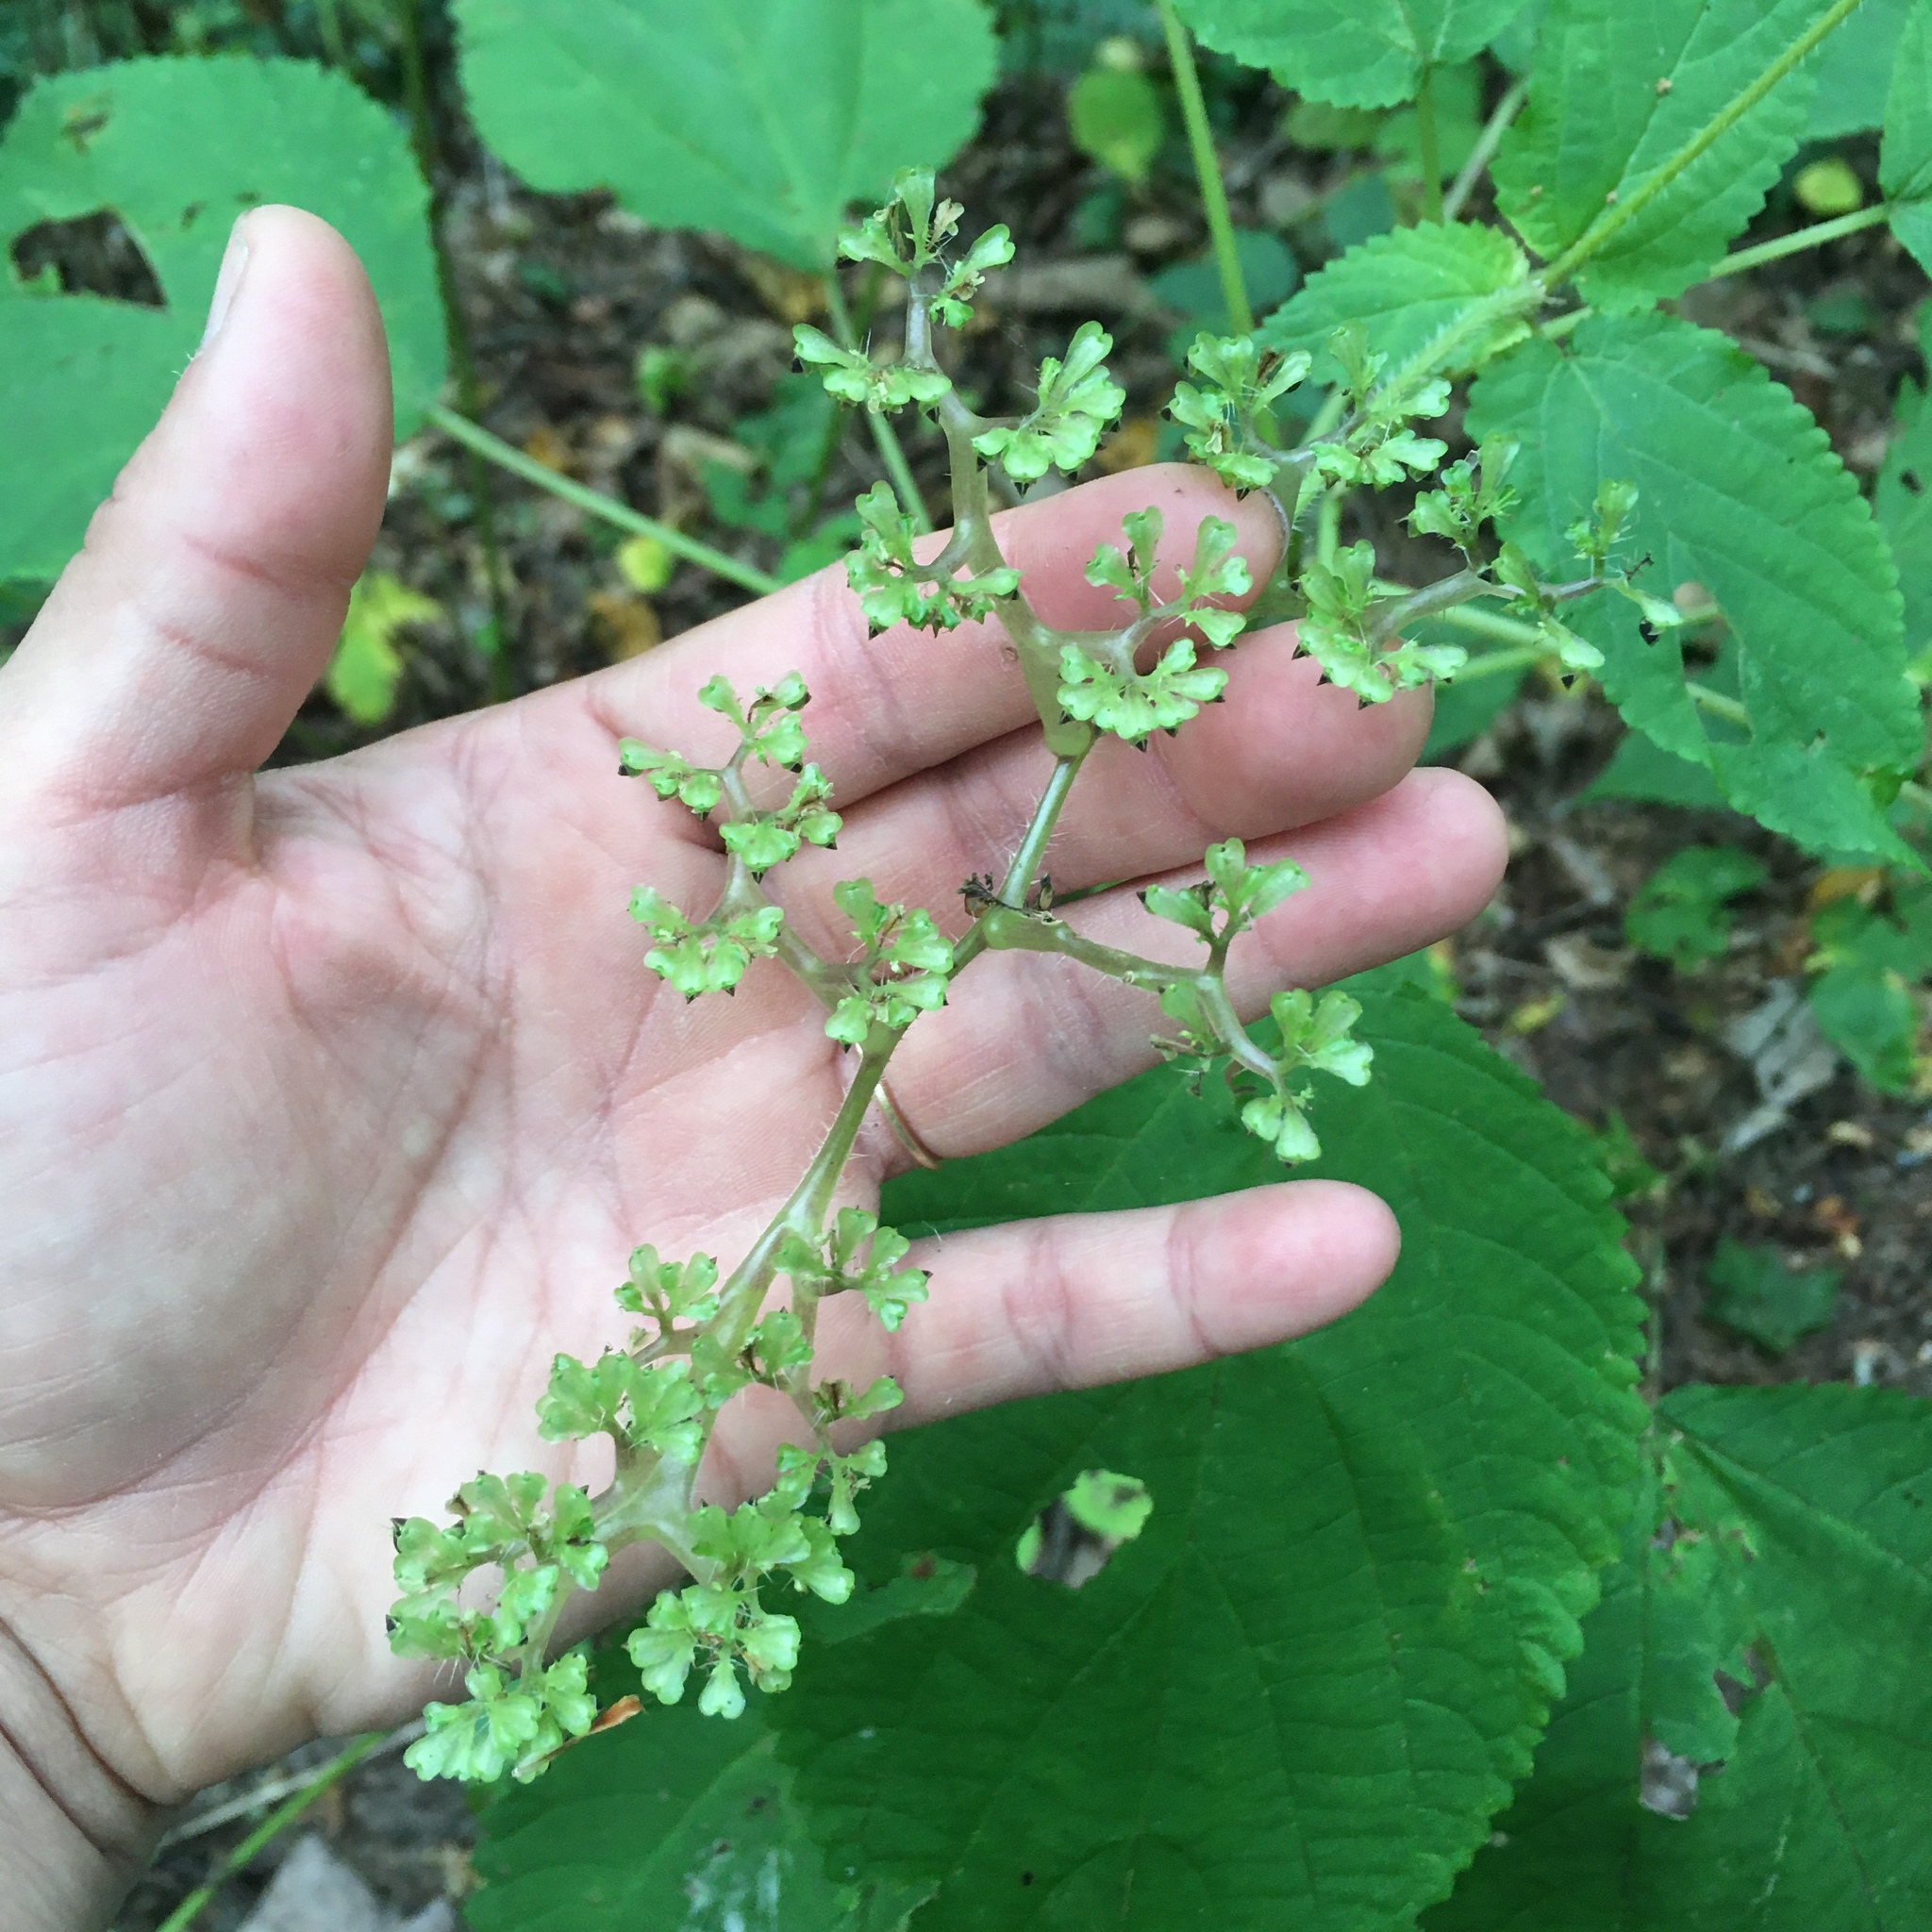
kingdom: Plantae
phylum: Tracheophyta
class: Magnoliopsida
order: Rosales
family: Urticaceae
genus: Laportea
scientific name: Laportea canadensis
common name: Canada nettle
